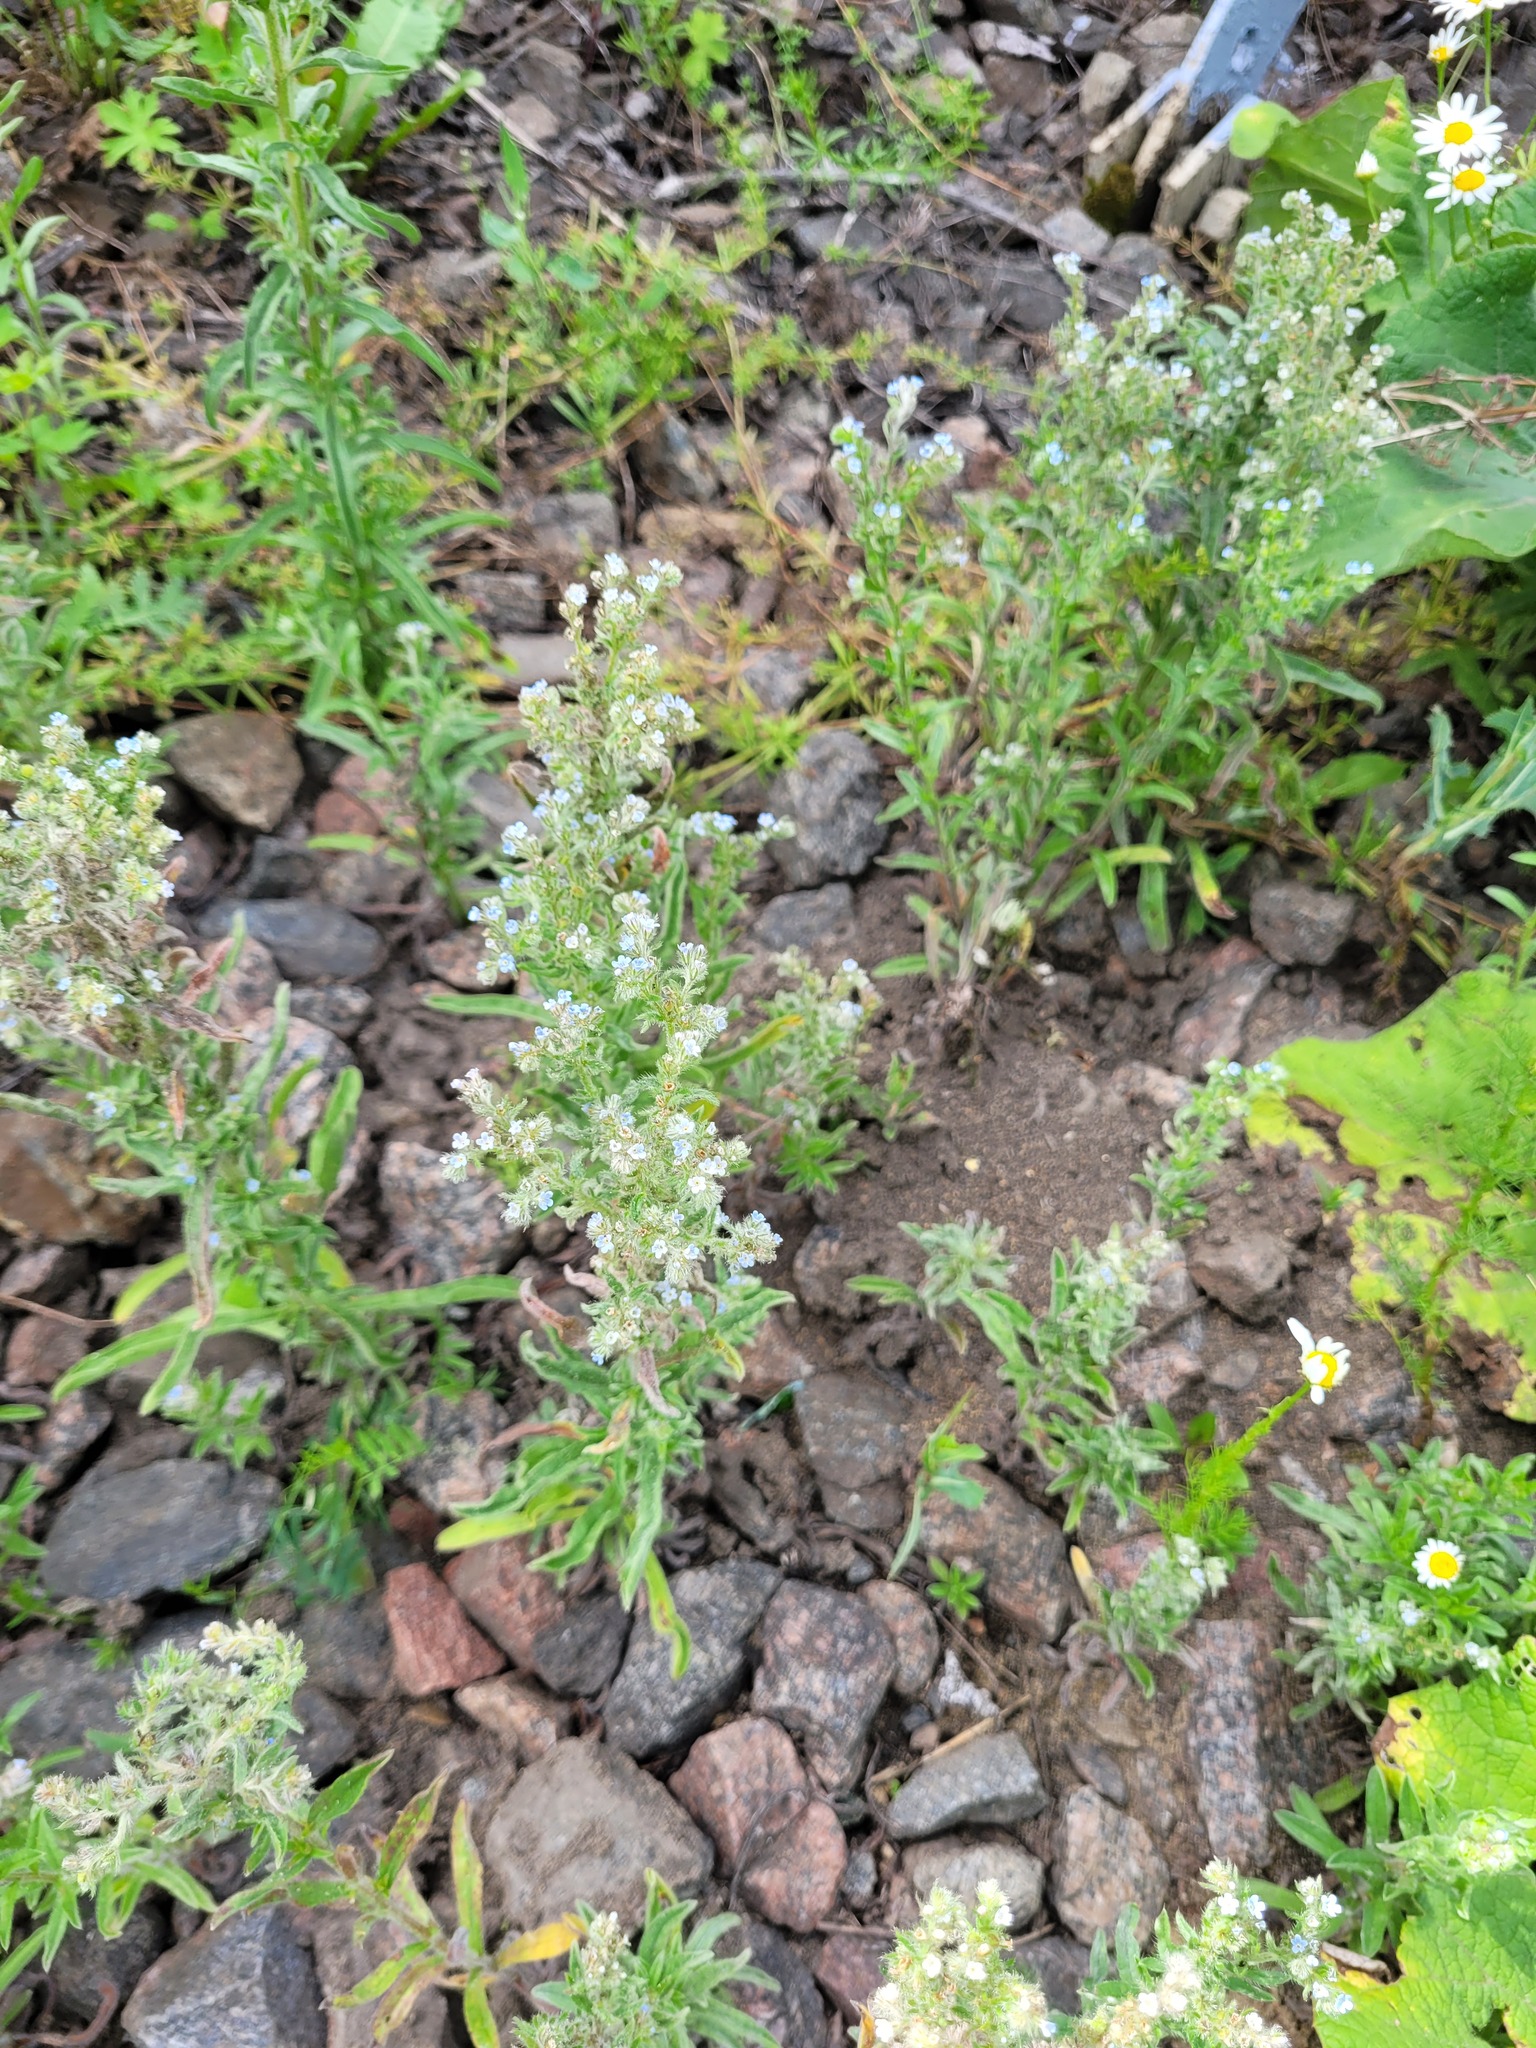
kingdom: Plantae
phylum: Tracheophyta
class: Magnoliopsida
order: Boraginales
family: Boraginaceae
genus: Lappula
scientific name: Lappula squarrosa
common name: European stickseed
